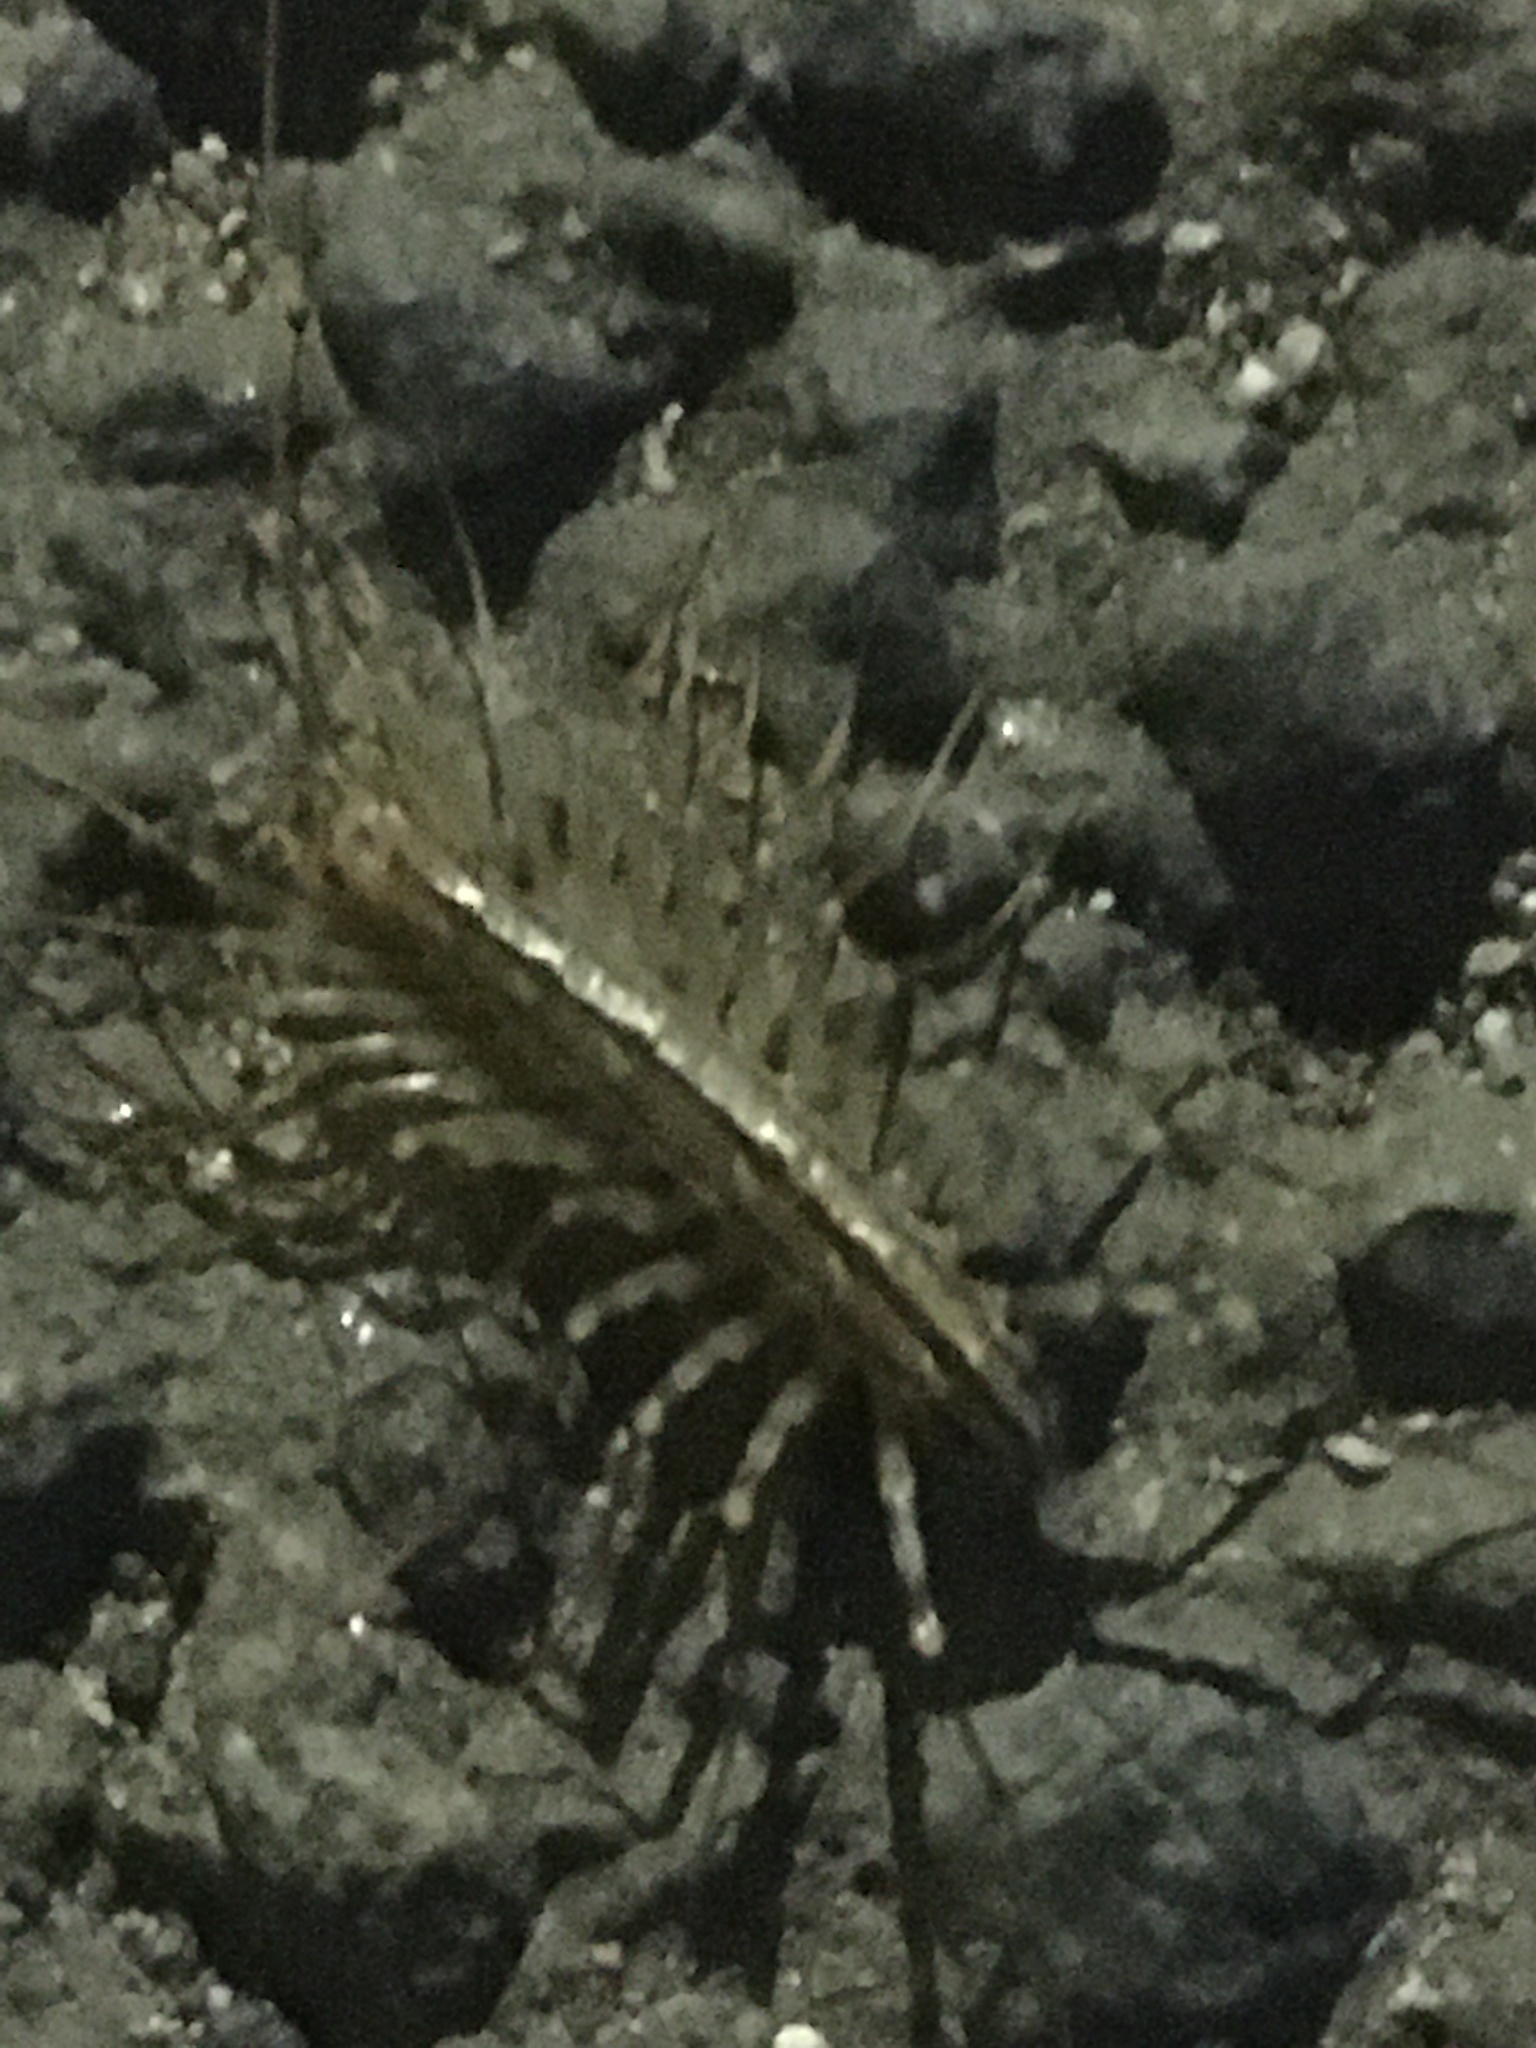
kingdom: Animalia
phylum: Arthropoda
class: Chilopoda
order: Scutigeromorpha
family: Scutigeridae
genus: Scutigera
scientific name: Scutigera coleoptrata
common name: House centipede
